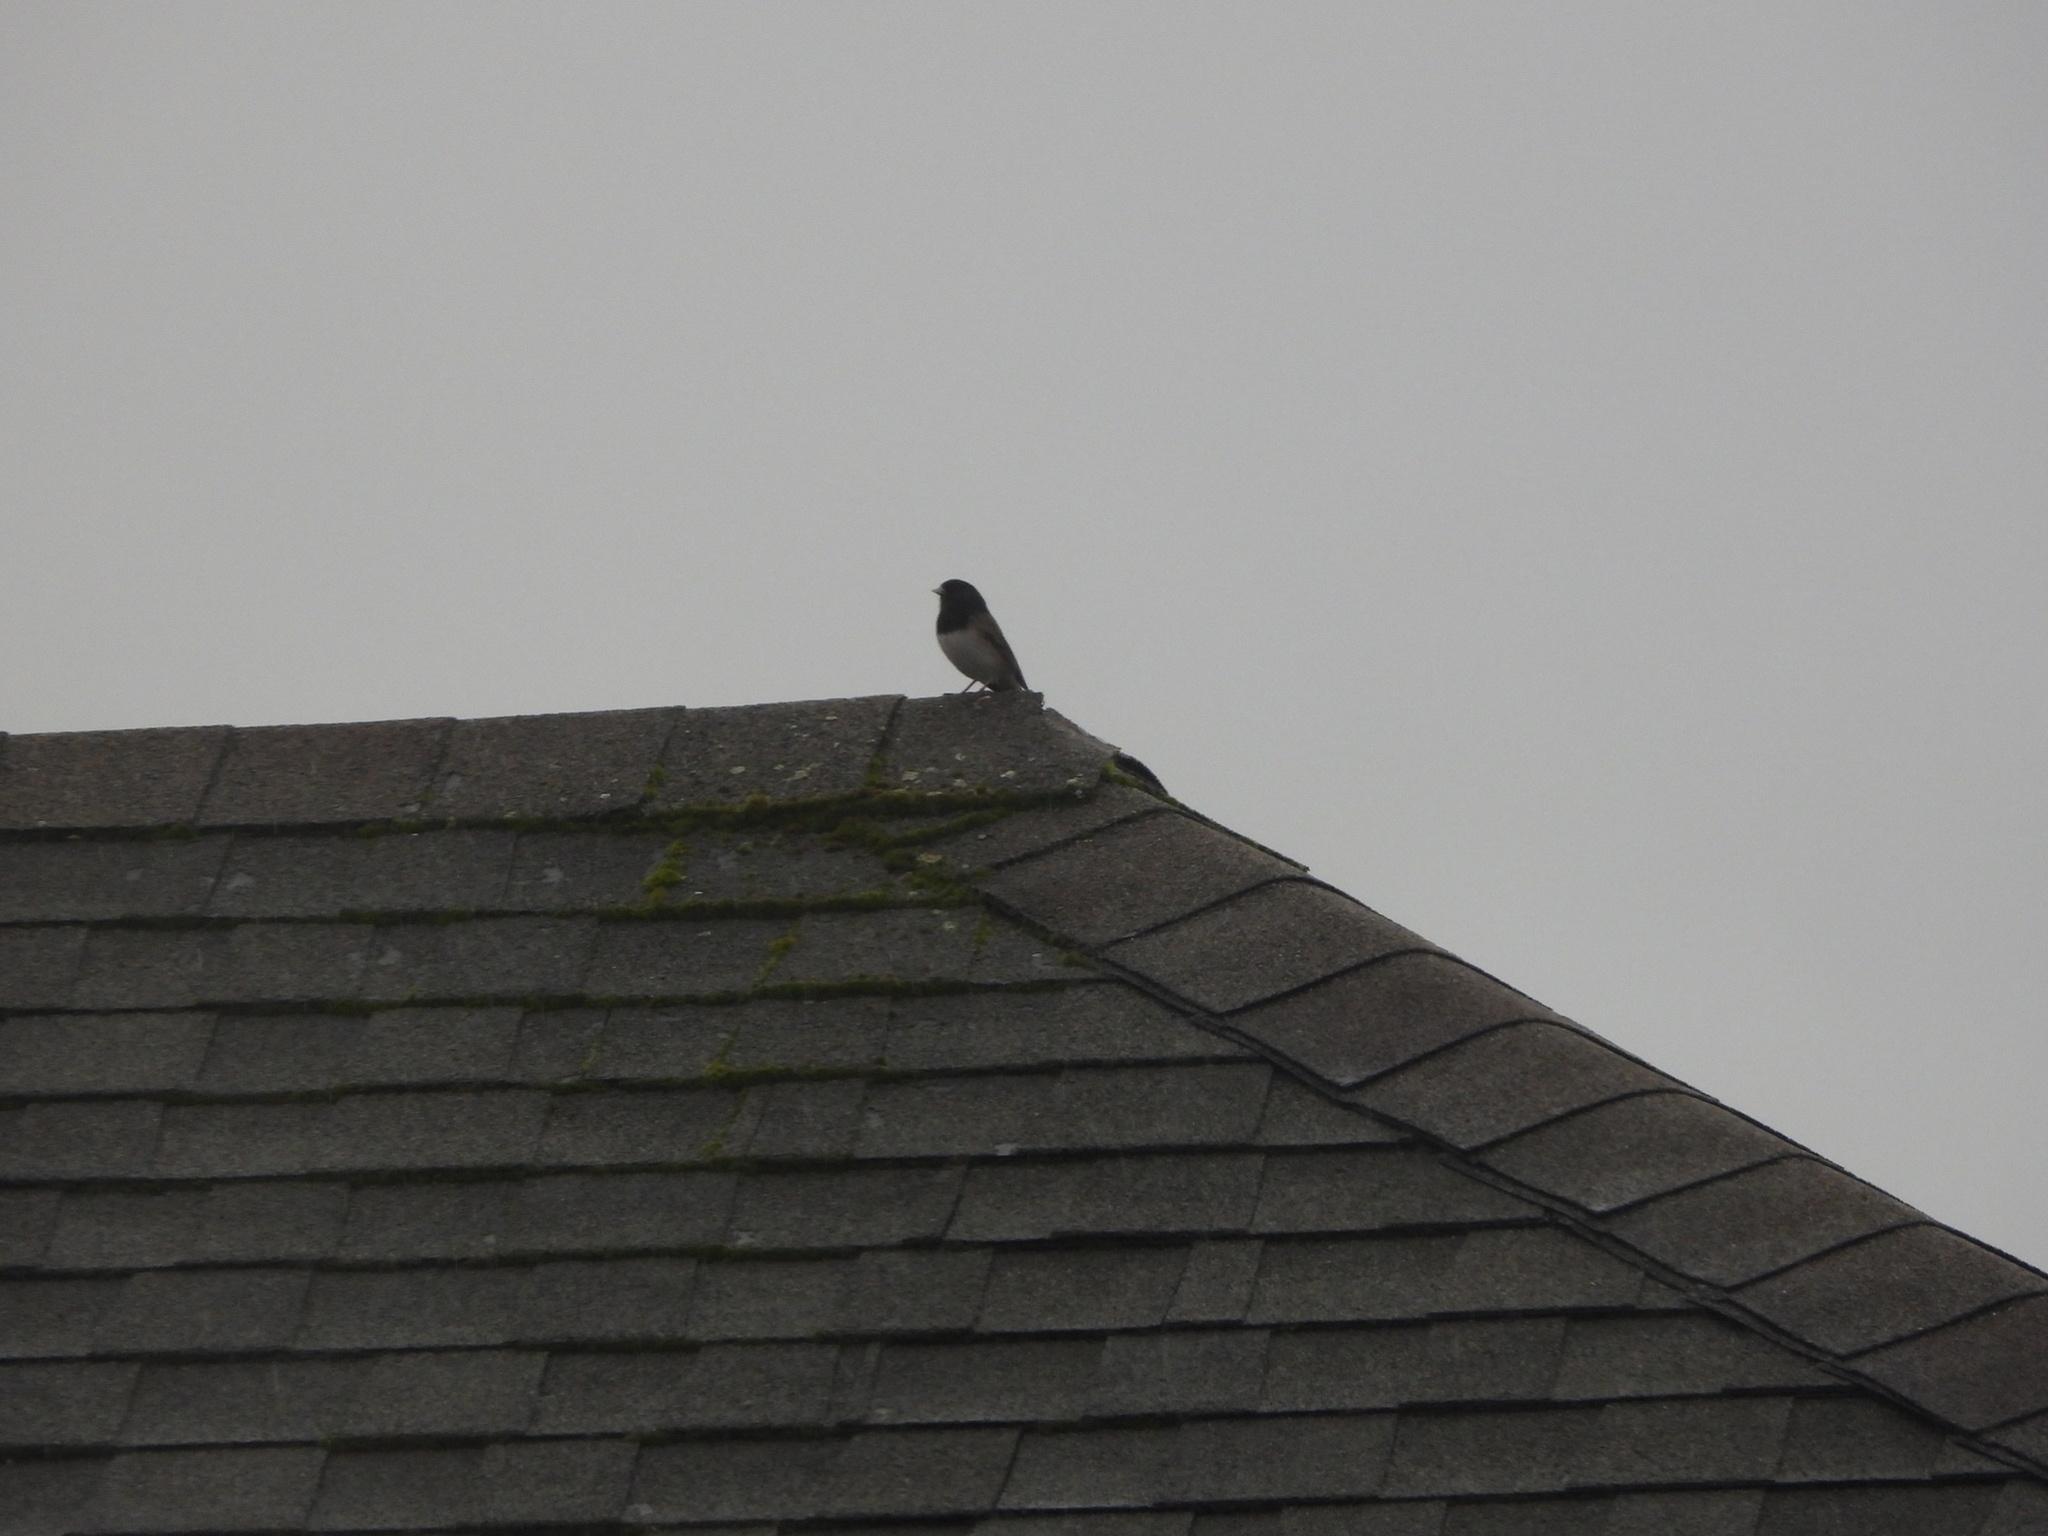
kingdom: Animalia
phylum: Chordata
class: Aves
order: Passeriformes
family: Passerellidae
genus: Junco
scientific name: Junco hyemalis
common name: Dark-eyed junco
